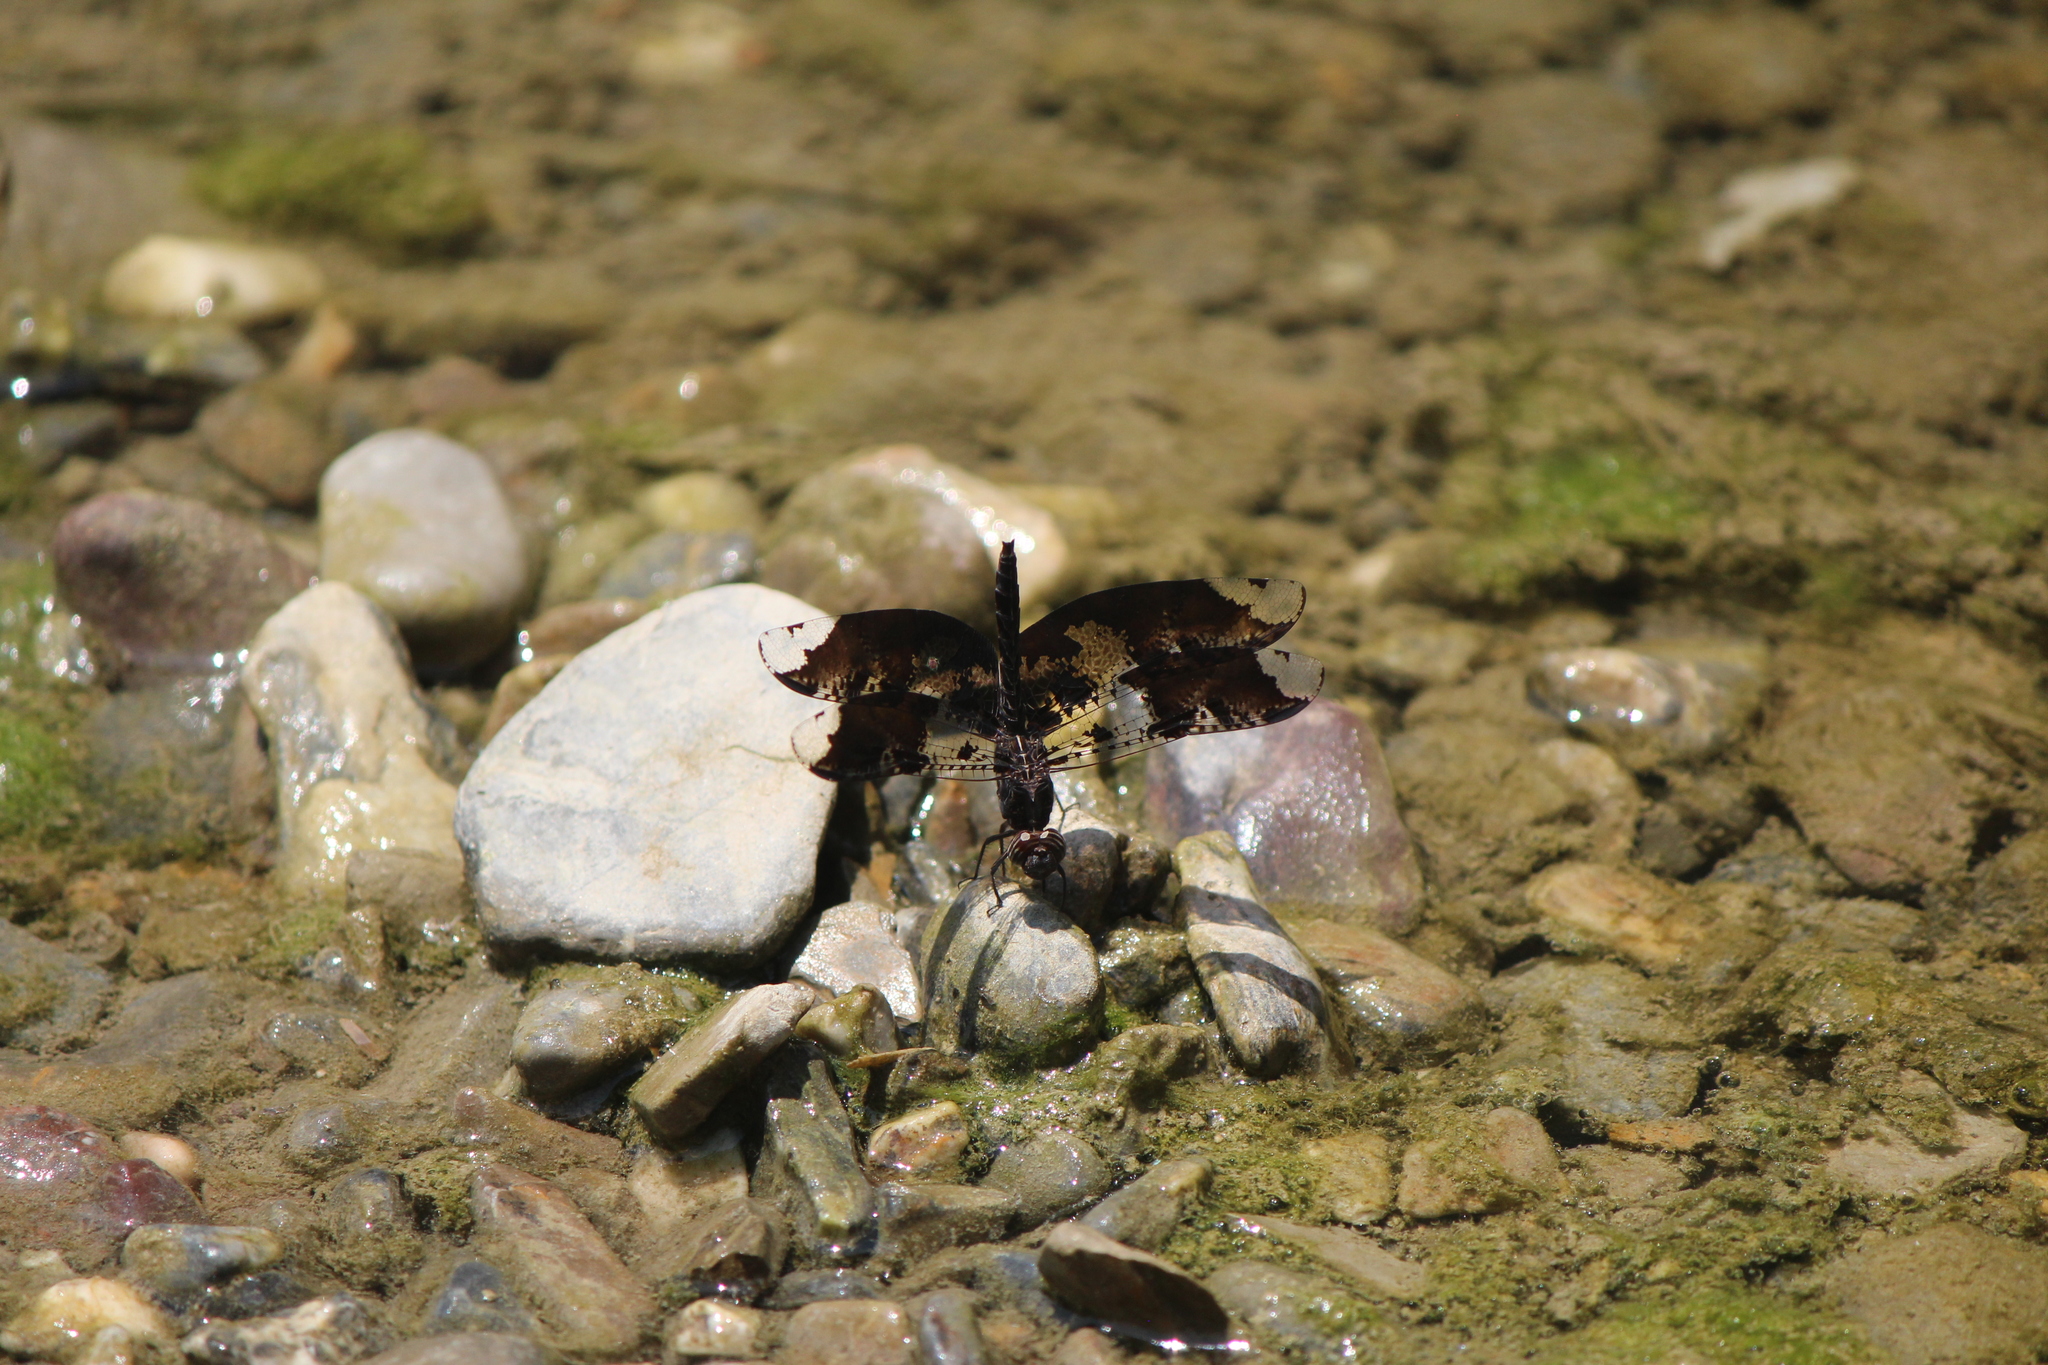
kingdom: Animalia
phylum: Arthropoda
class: Insecta
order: Odonata
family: Libellulidae
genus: Pseudoleon
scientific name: Pseudoleon superbus
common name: Filigree skimmer
